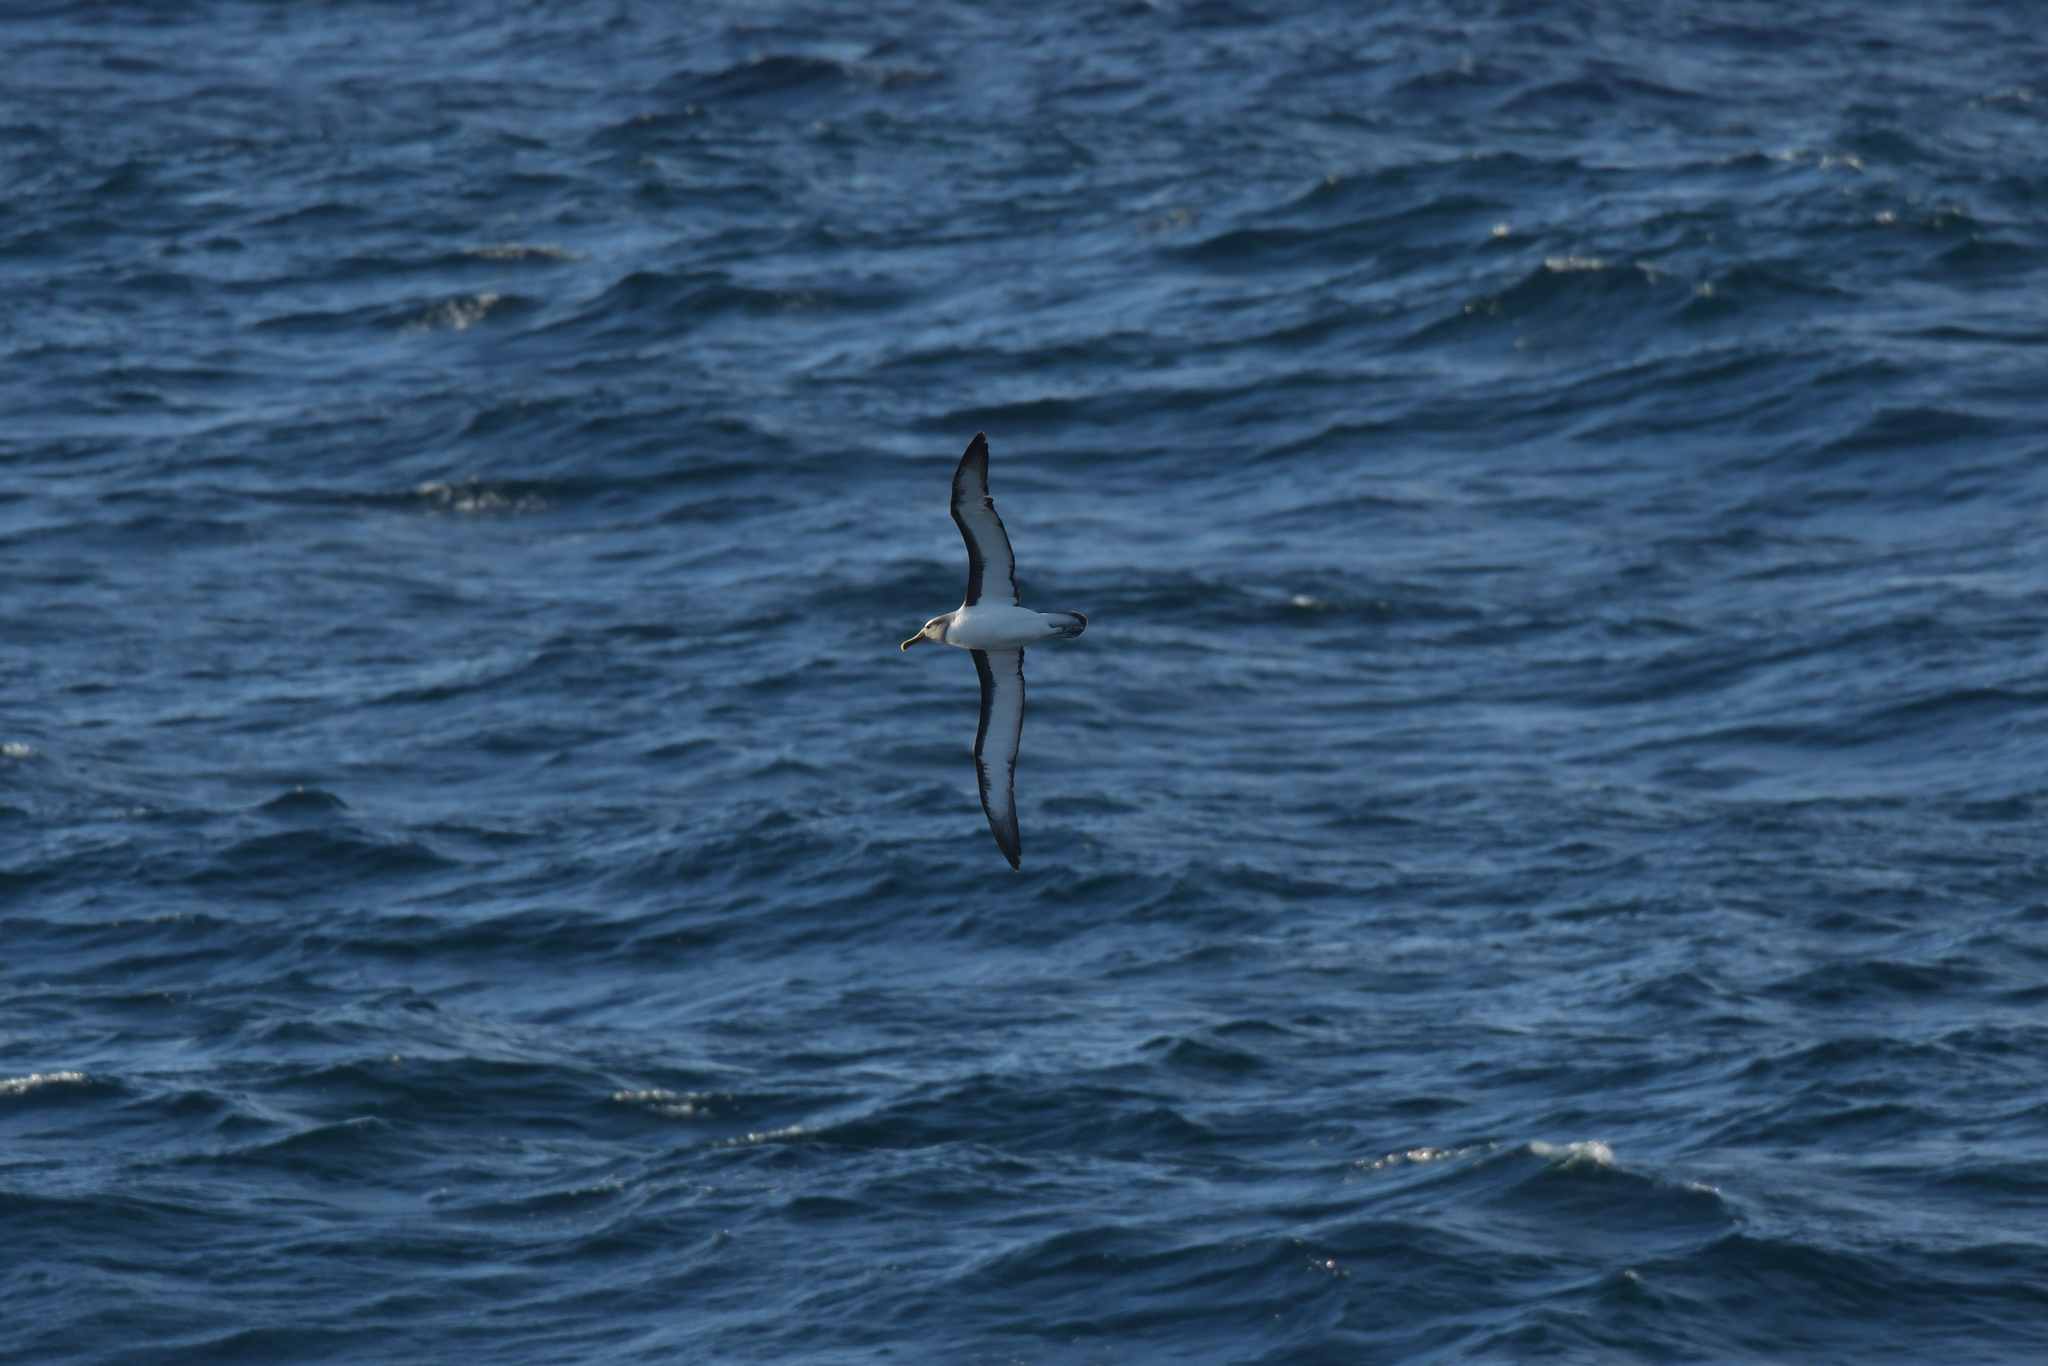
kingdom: Animalia
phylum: Chordata
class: Aves
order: Procellariiformes
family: Diomedeidae
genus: Thalassarche
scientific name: Thalassarche bulleri
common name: Buller's albatross
